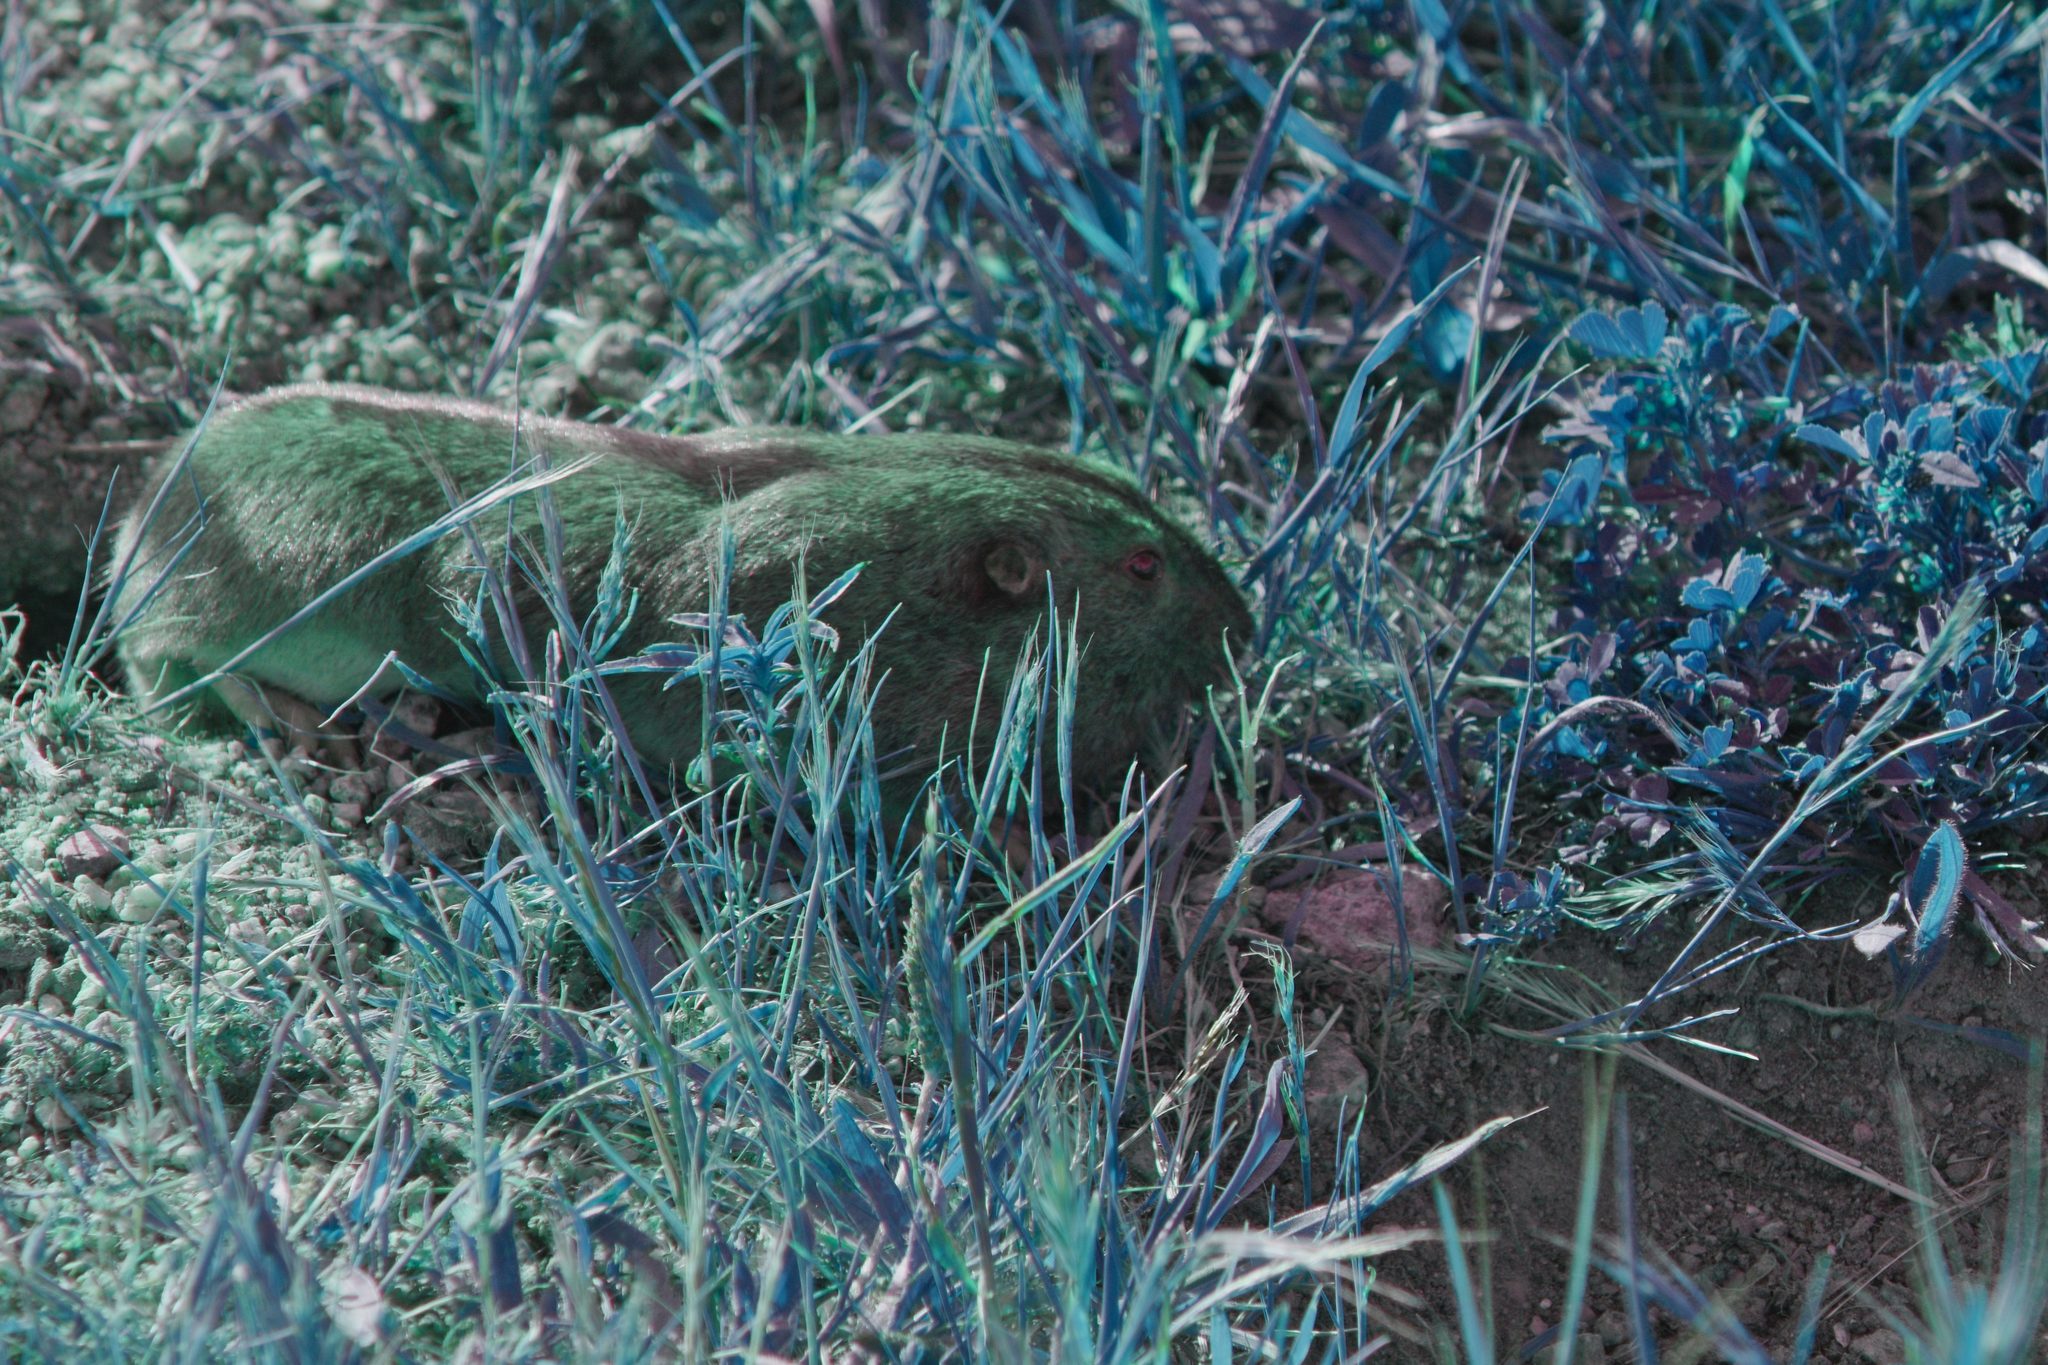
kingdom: Animalia
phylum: Chordata
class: Mammalia
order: Rodentia
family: Geomyidae
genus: Thomomys
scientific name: Thomomys bottae
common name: Botta's pocket gopher
